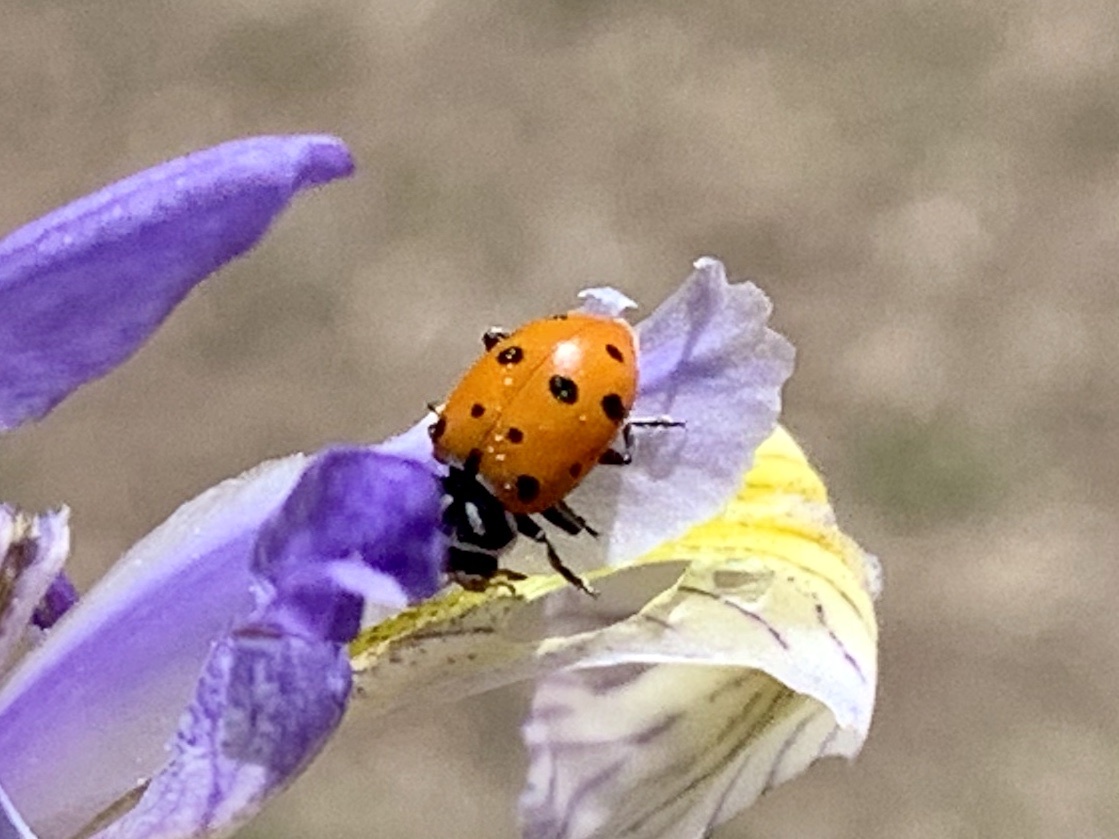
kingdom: Animalia
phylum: Arthropoda
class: Insecta
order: Coleoptera
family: Coccinellidae
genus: Hippodamia
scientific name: Hippodamia convergens
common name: Convergent lady beetle
